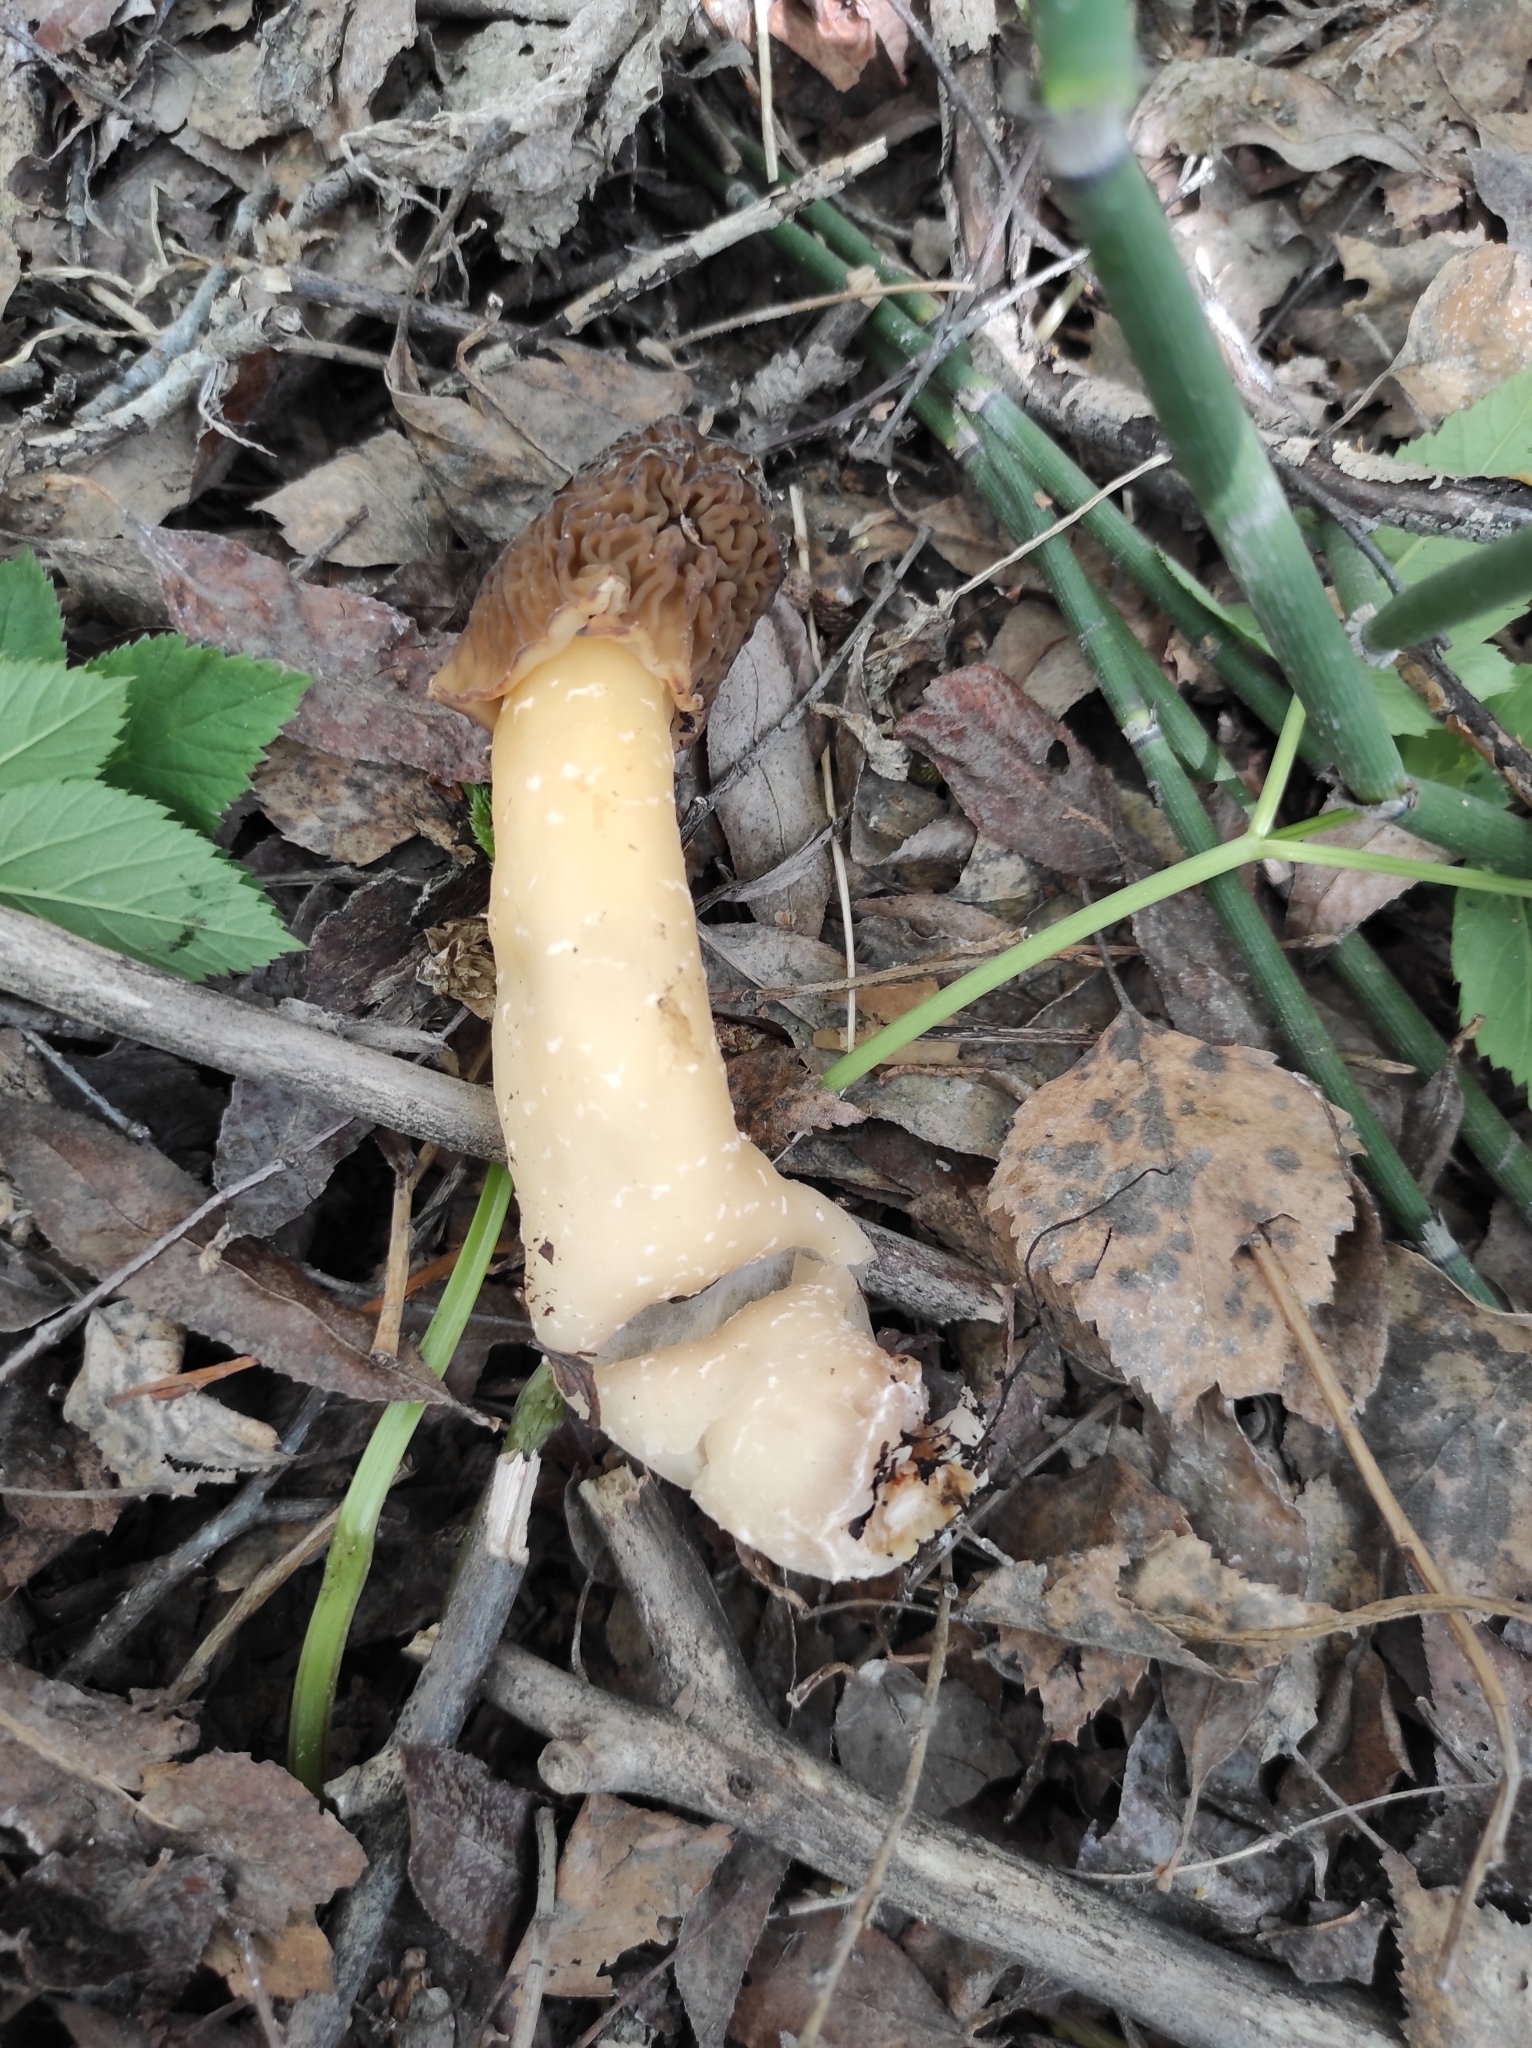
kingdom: Fungi
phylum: Ascomycota
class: Pezizomycetes
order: Pezizales
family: Morchellaceae
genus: Verpa
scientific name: Verpa bohemica
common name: Wrinkled thimble morel
